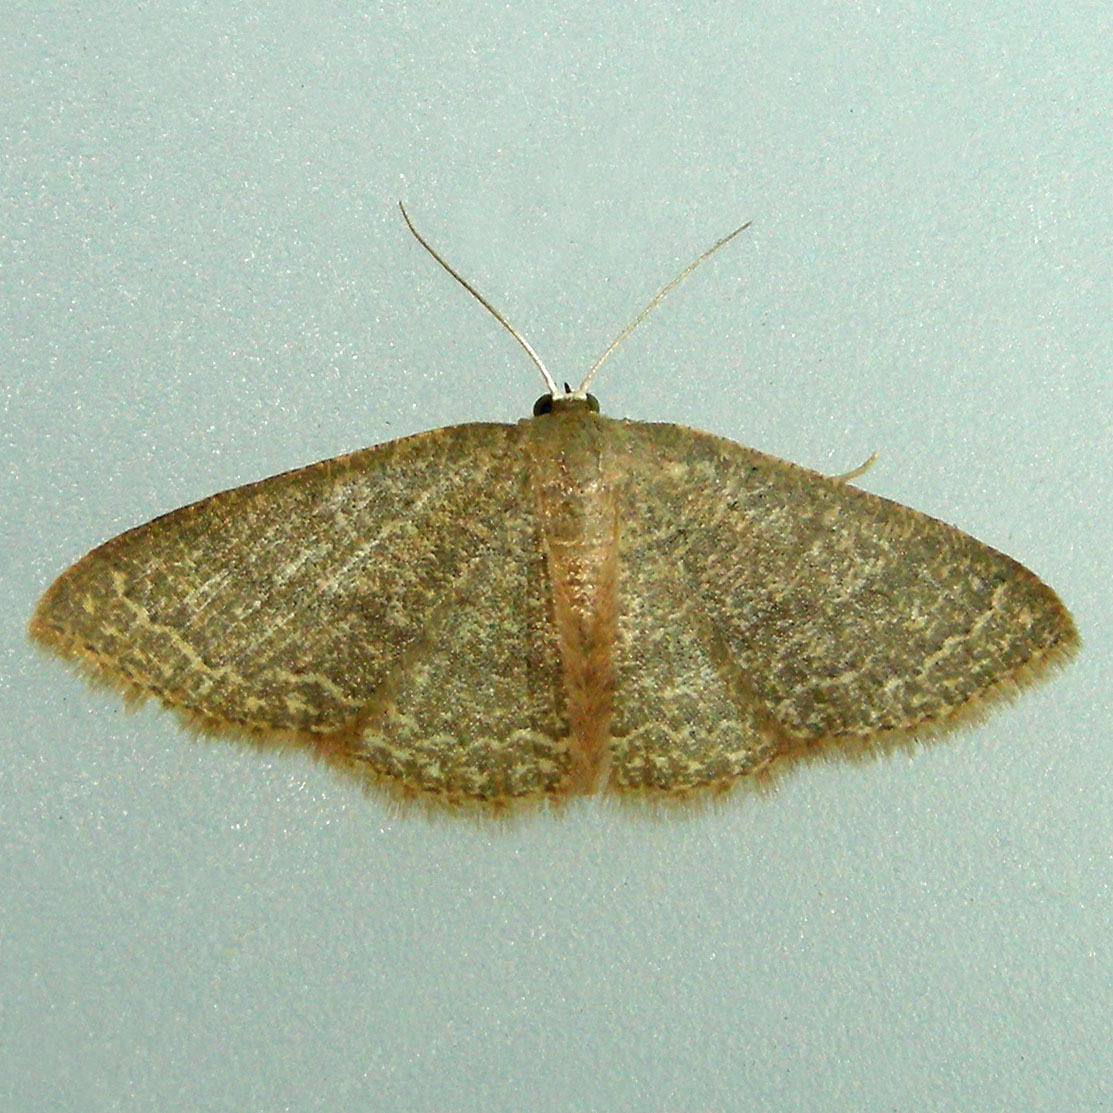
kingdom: Animalia
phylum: Arthropoda
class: Insecta
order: Lepidoptera
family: Geometridae
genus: Pleuroprucha
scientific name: Pleuroprucha insulsaria
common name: Common tan wave
